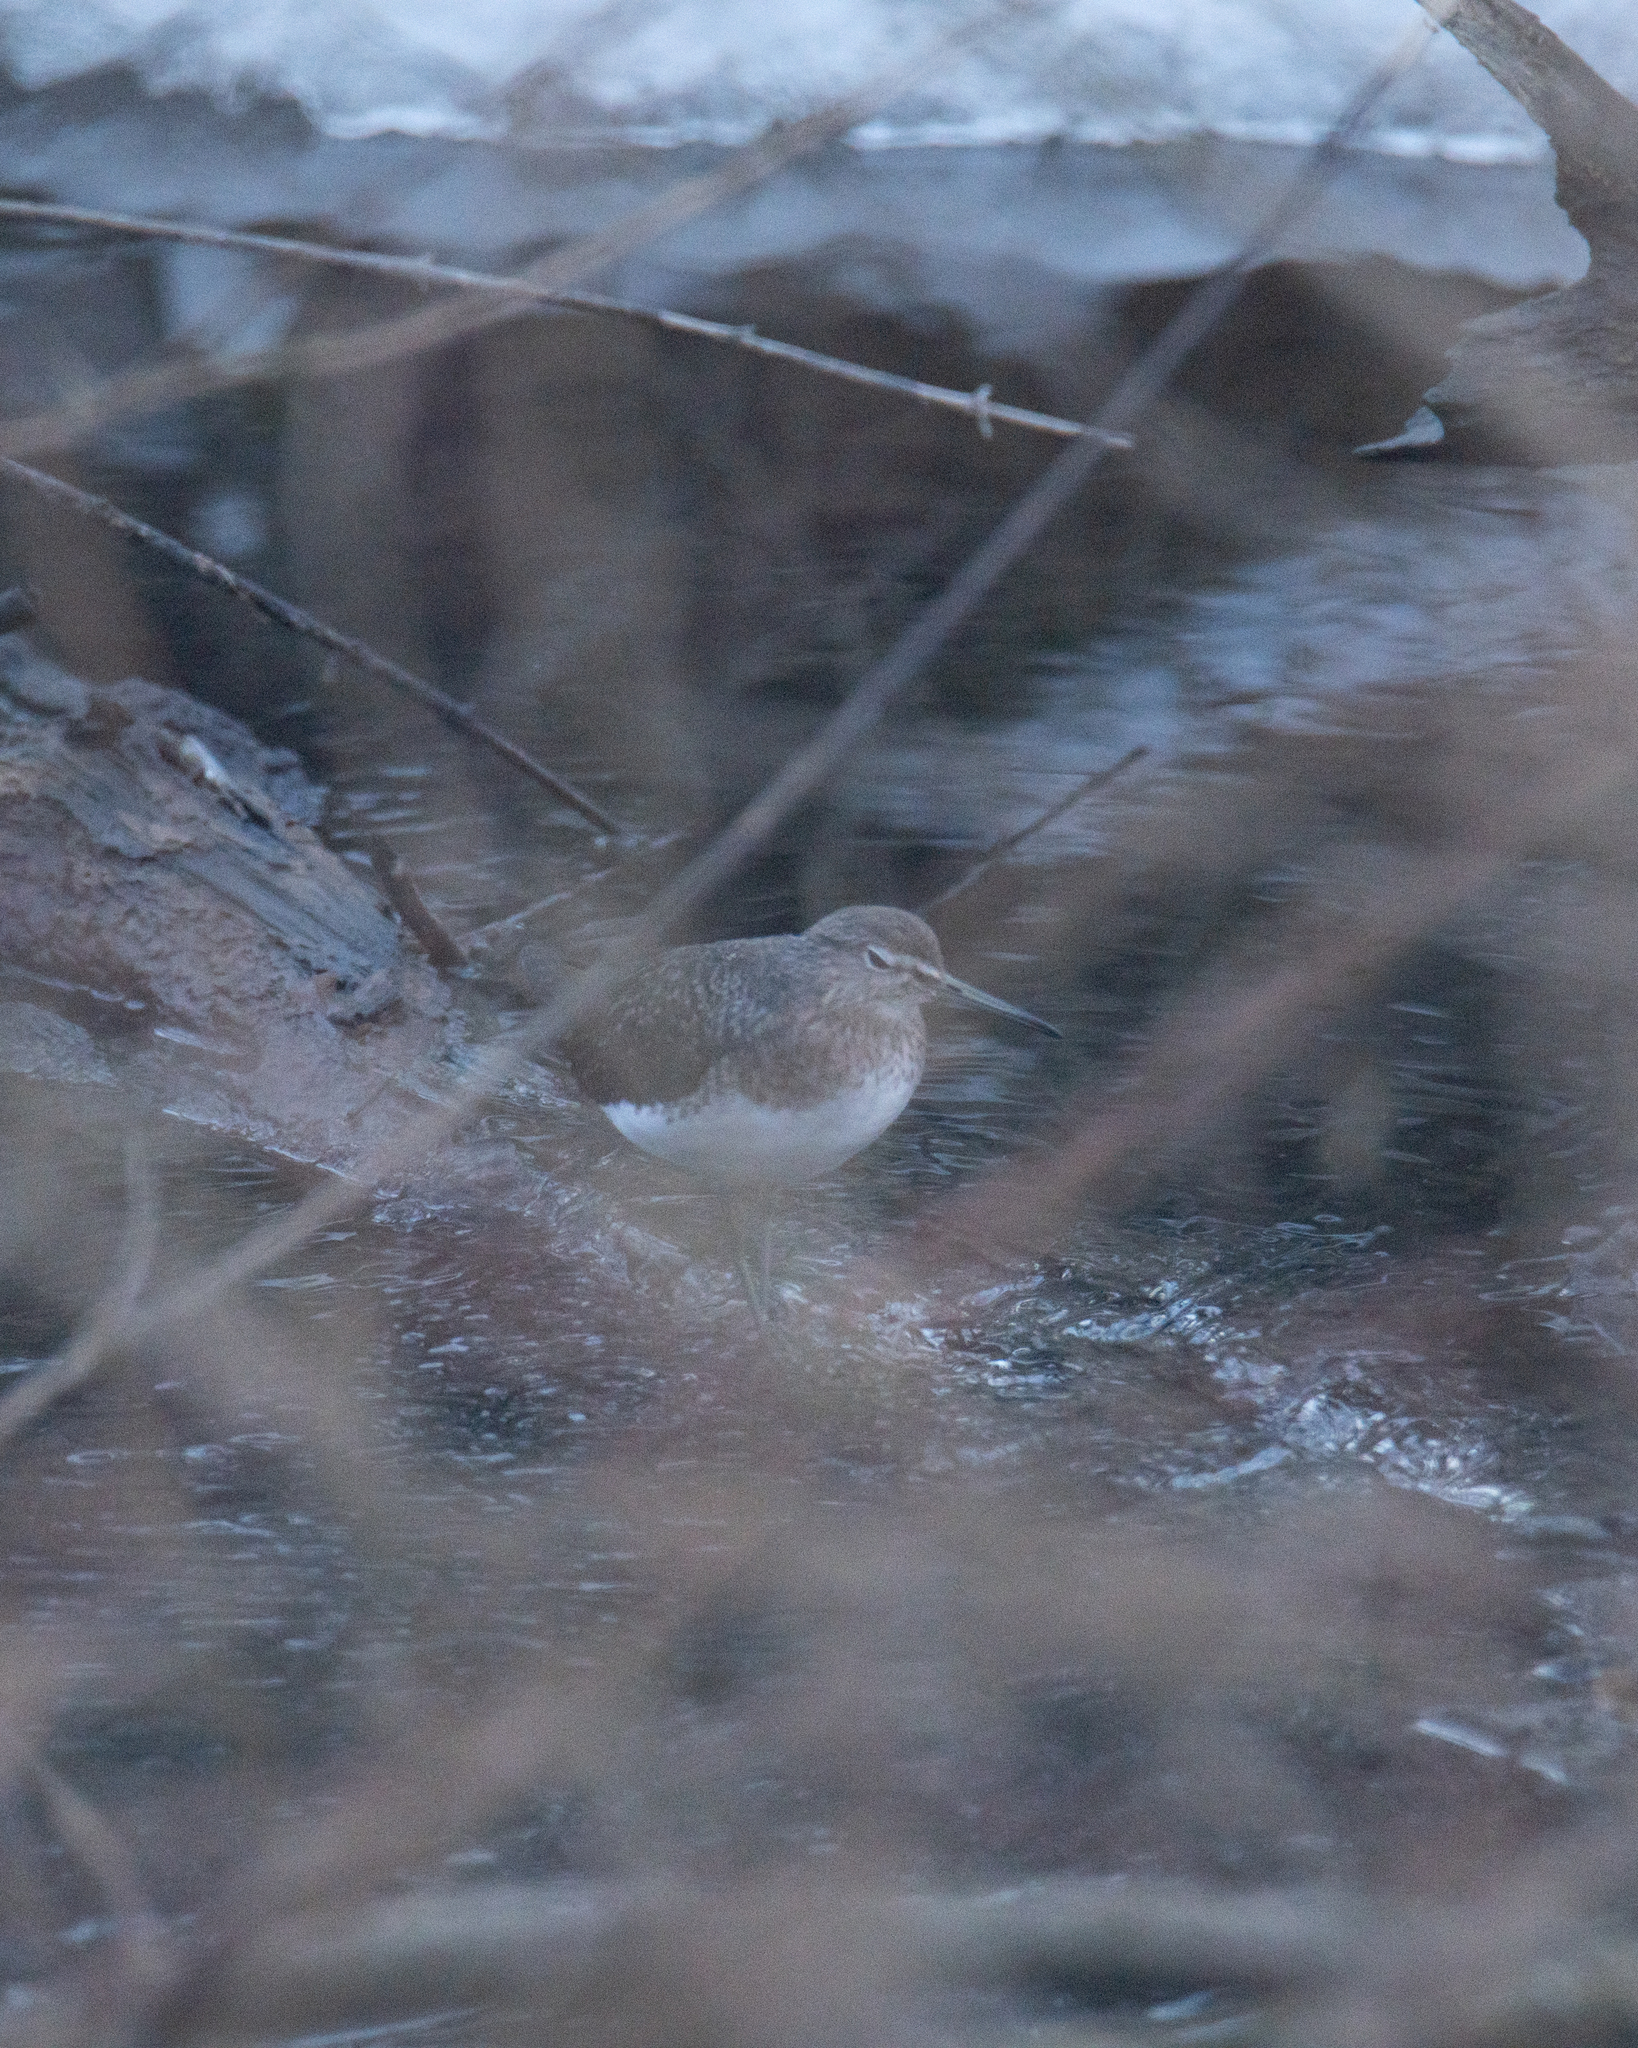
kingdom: Animalia
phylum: Chordata
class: Aves
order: Charadriiformes
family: Scolopacidae
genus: Tringa
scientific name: Tringa ochropus
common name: Green sandpiper
